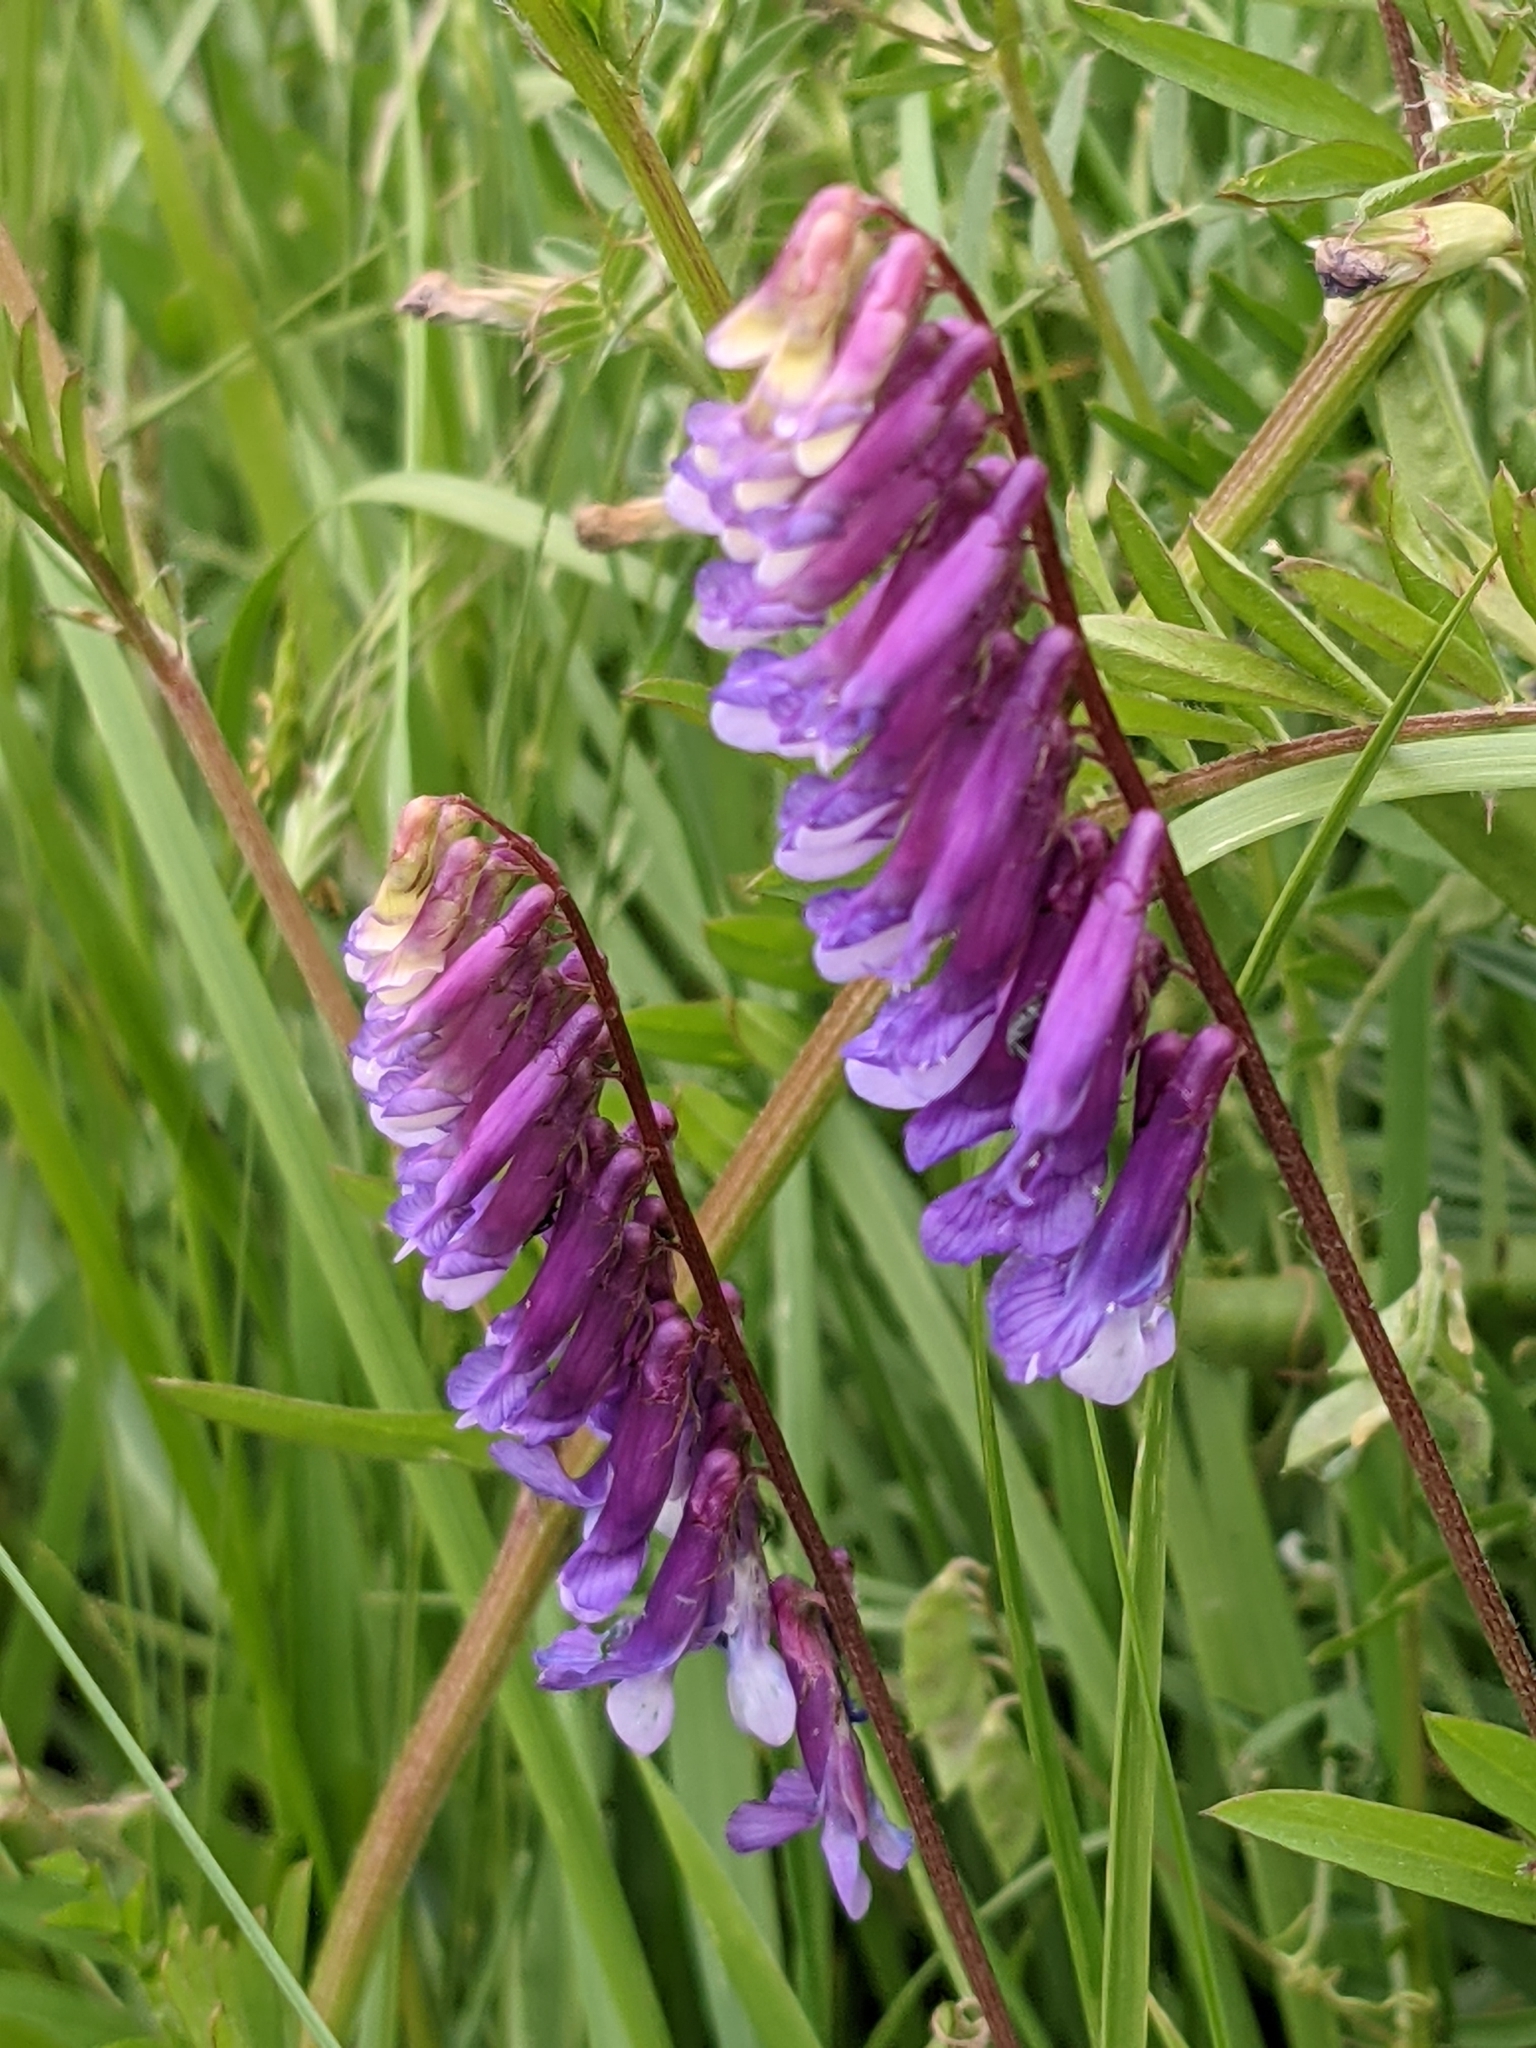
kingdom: Plantae
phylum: Tracheophyta
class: Magnoliopsida
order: Fabales
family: Fabaceae
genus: Vicia
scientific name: Vicia villosa
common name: Fodder vetch
